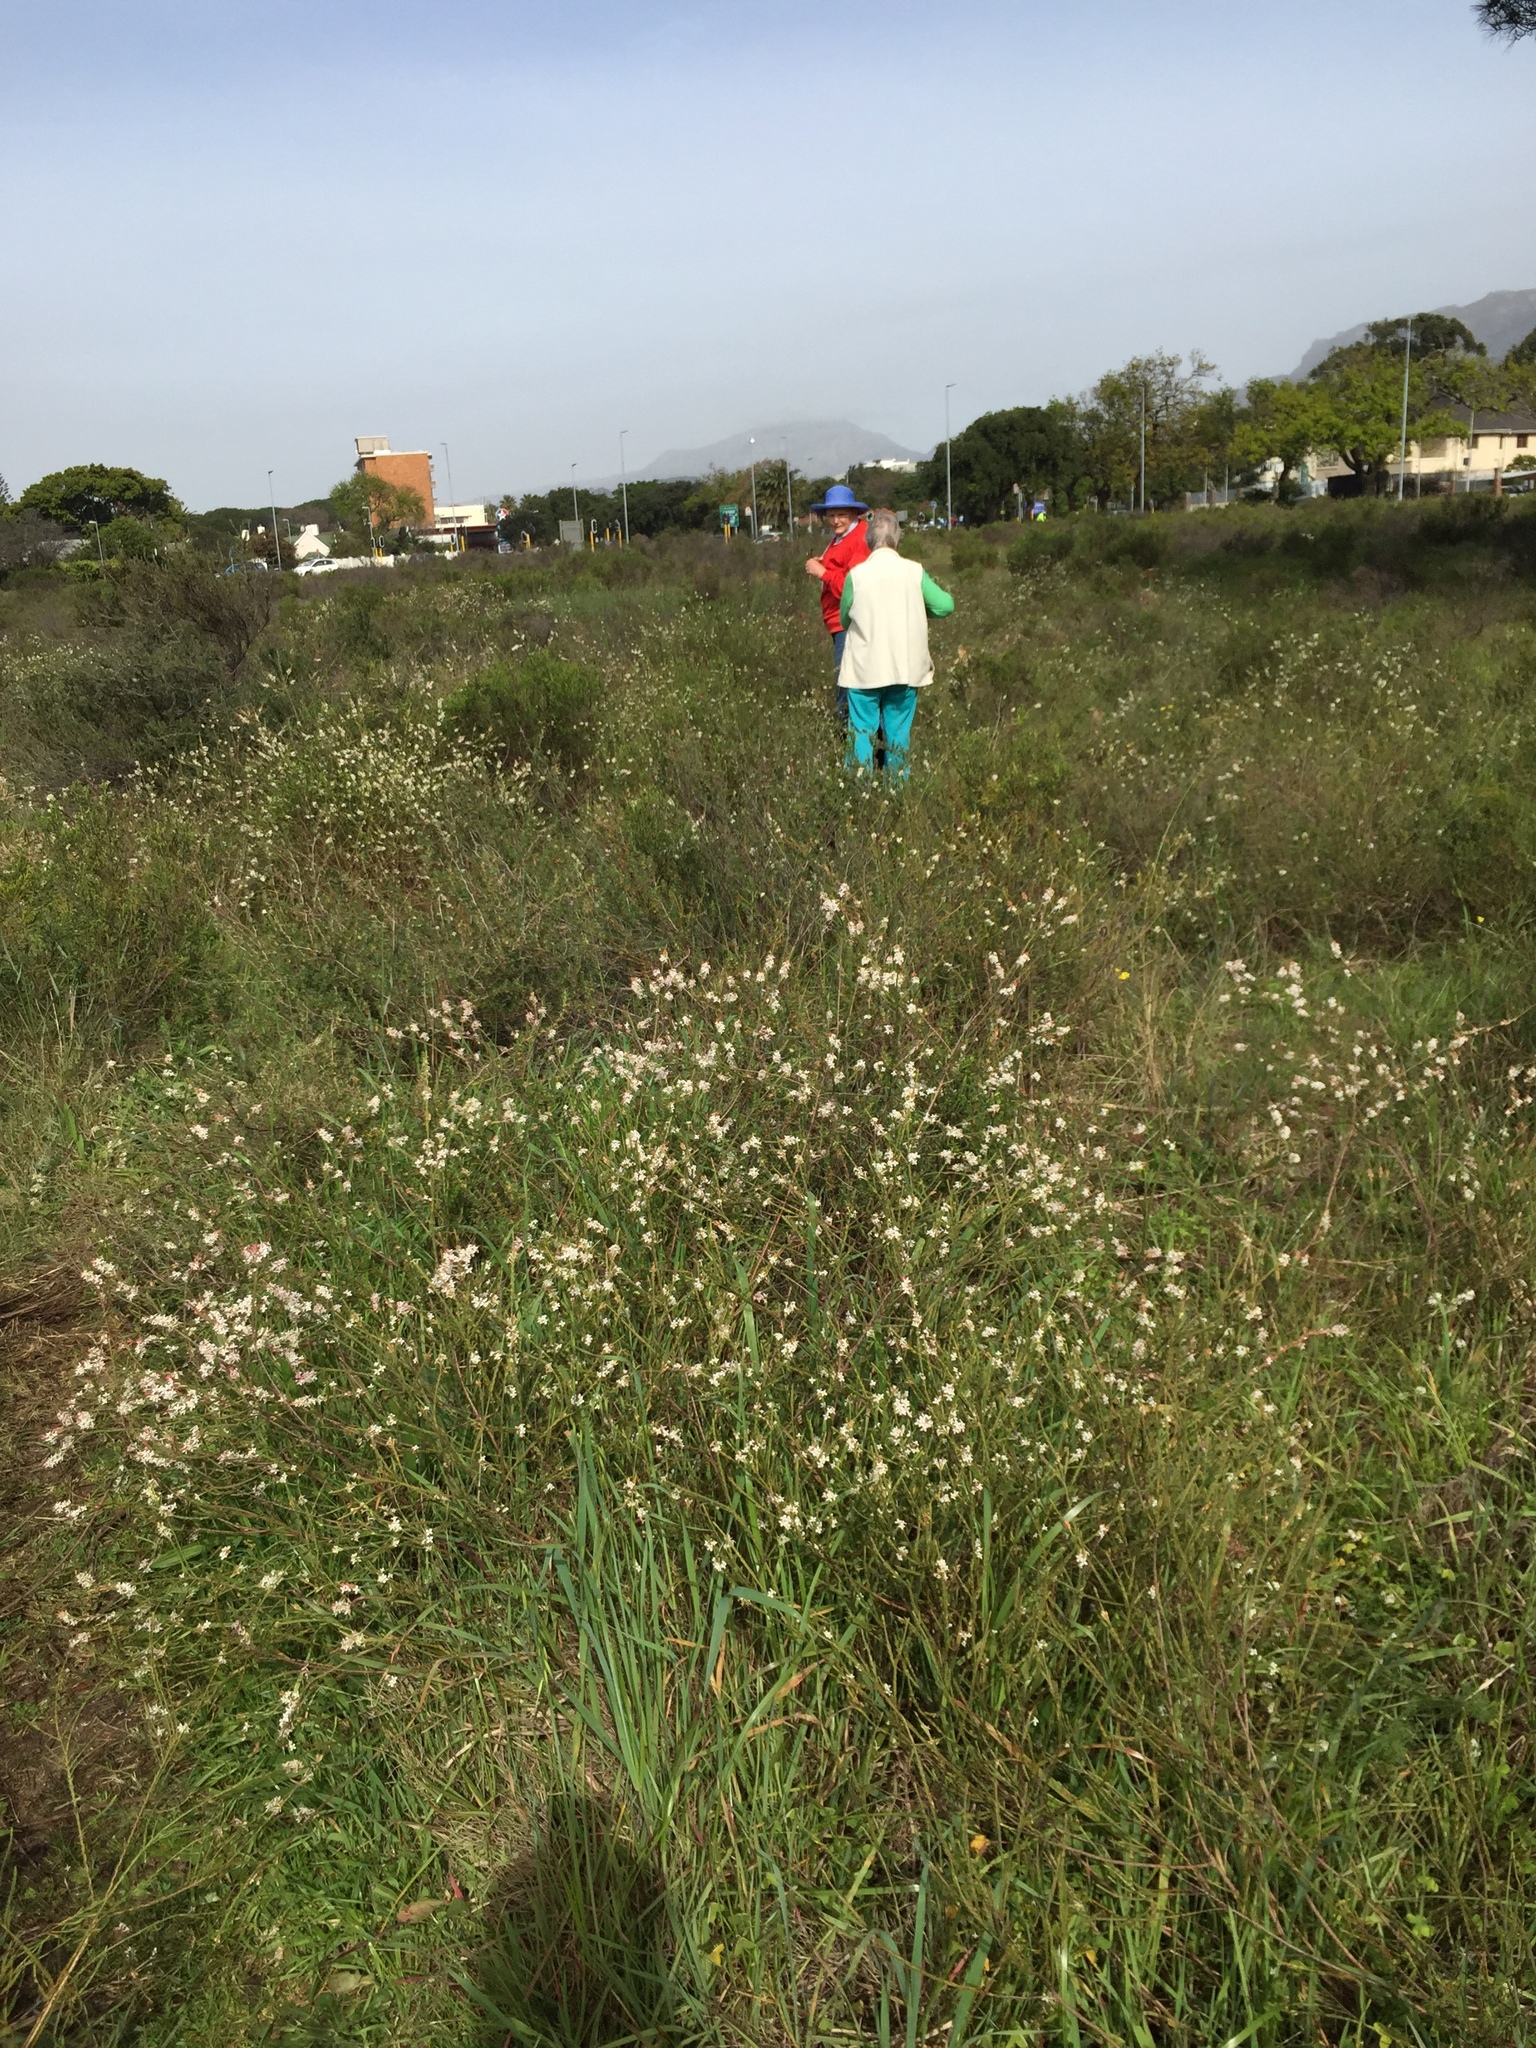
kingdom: Plantae
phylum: Tracheophyta
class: Magnoliopsida
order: Malvales
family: Thymelaeaceae
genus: Struthiola
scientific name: Struthiola dodecandra
